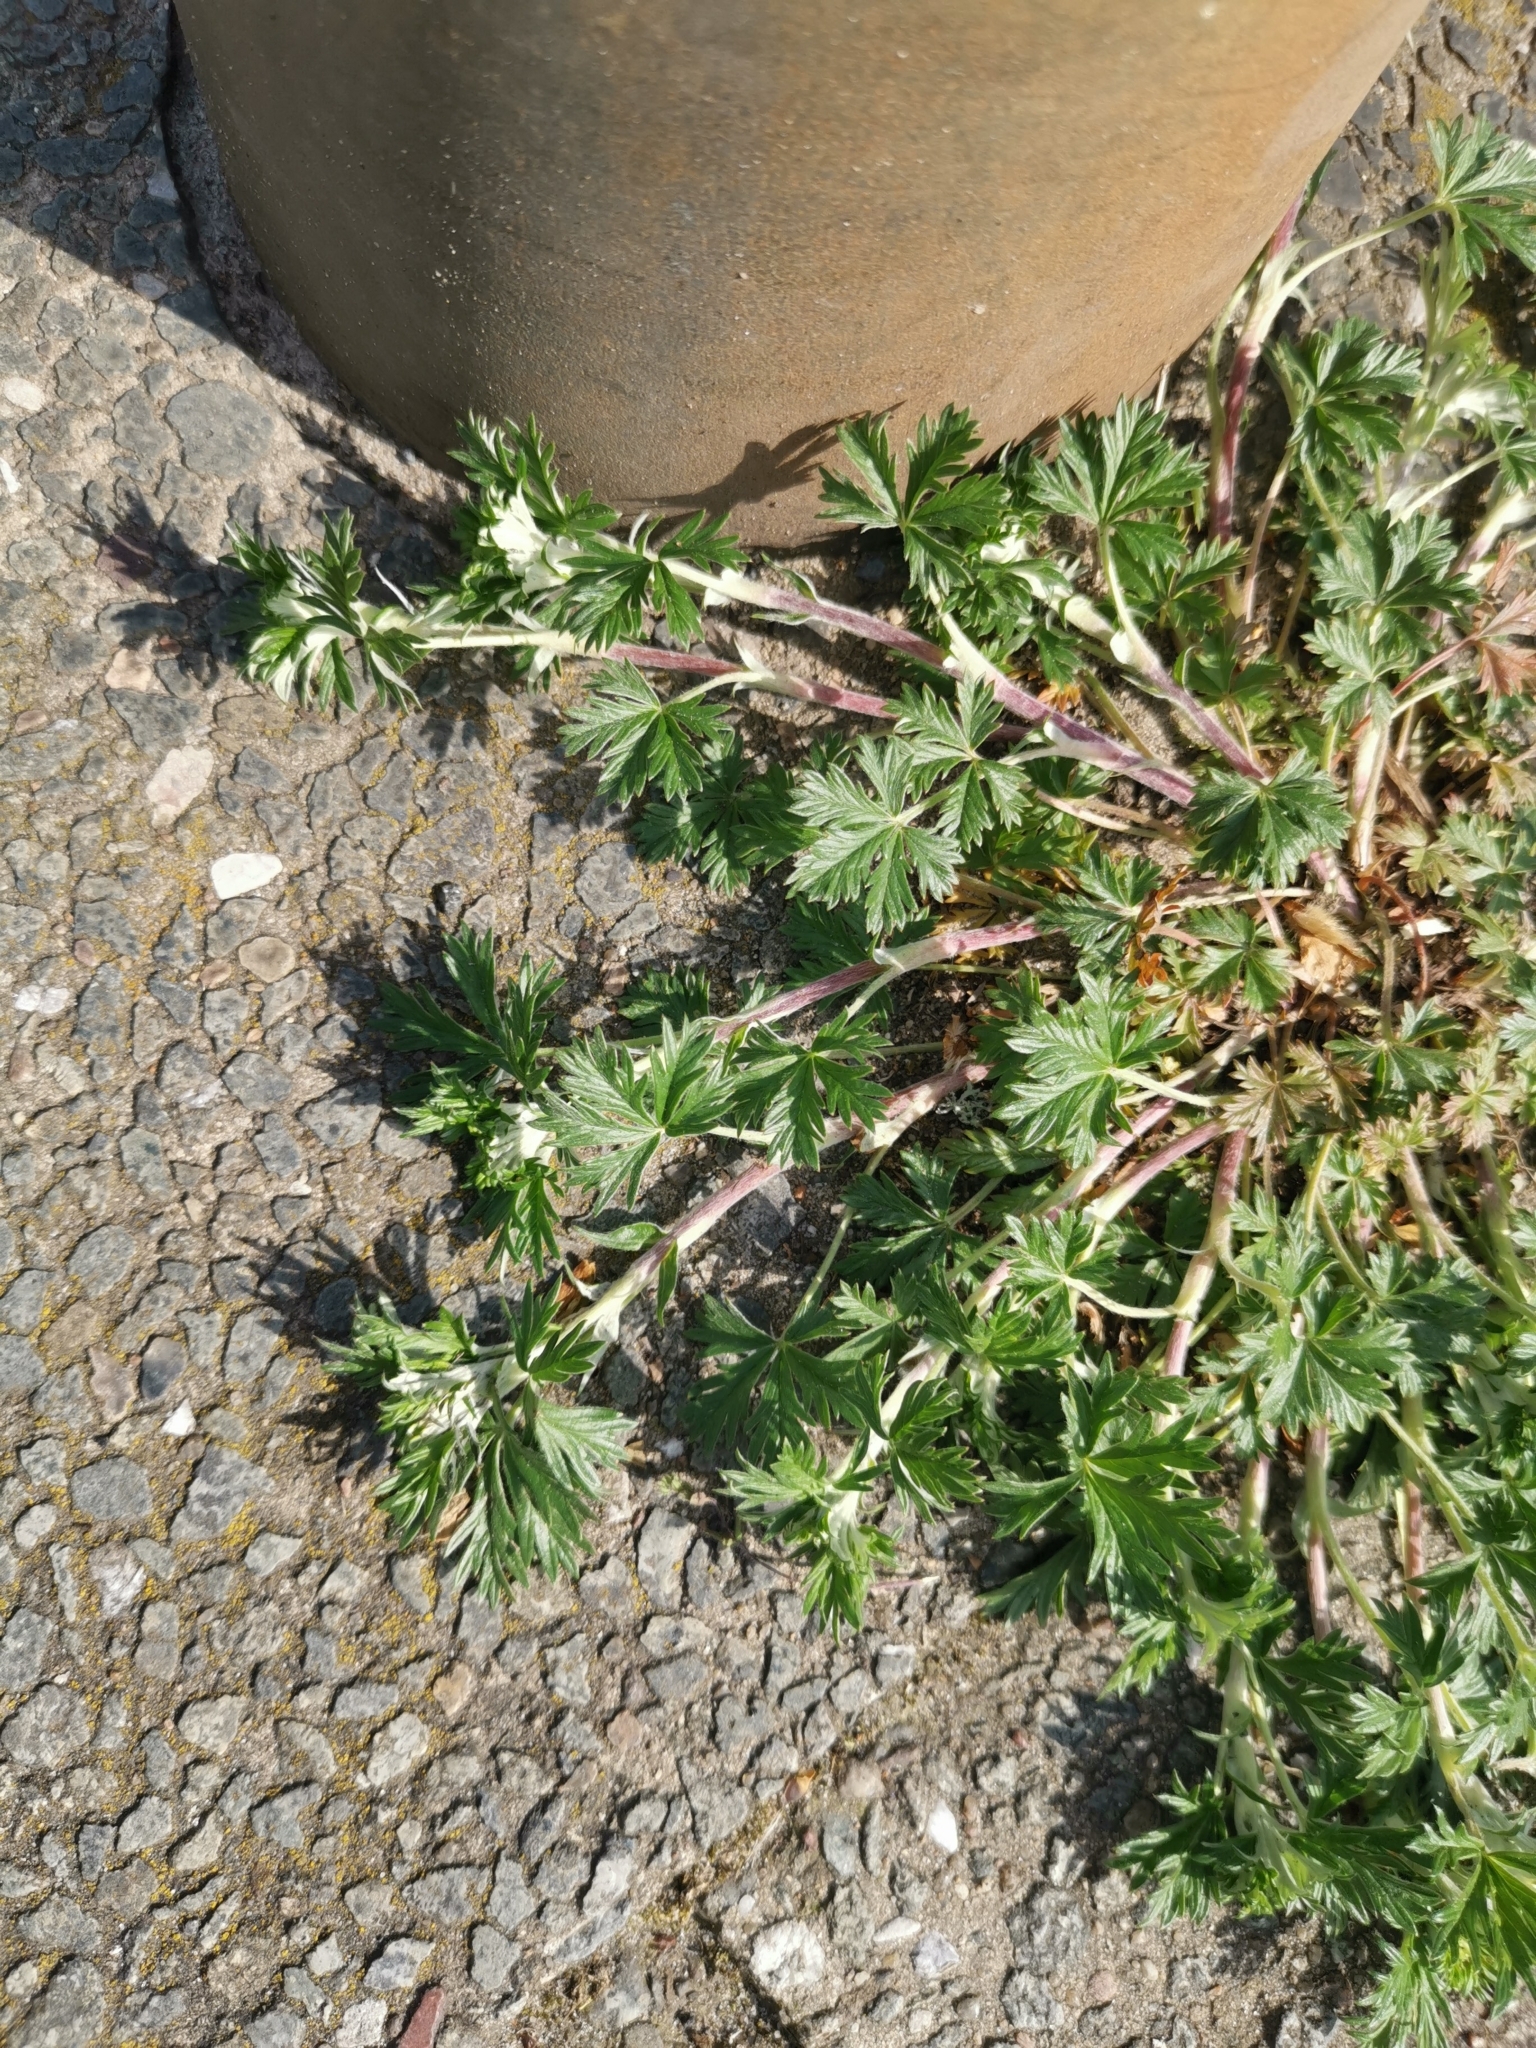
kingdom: Plantae
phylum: Tracheophyta
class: Magnoliopsida
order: Rosales
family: Rosaceae
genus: Potentilla
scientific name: Potentilla argentea
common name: Hoary cinquefoil
